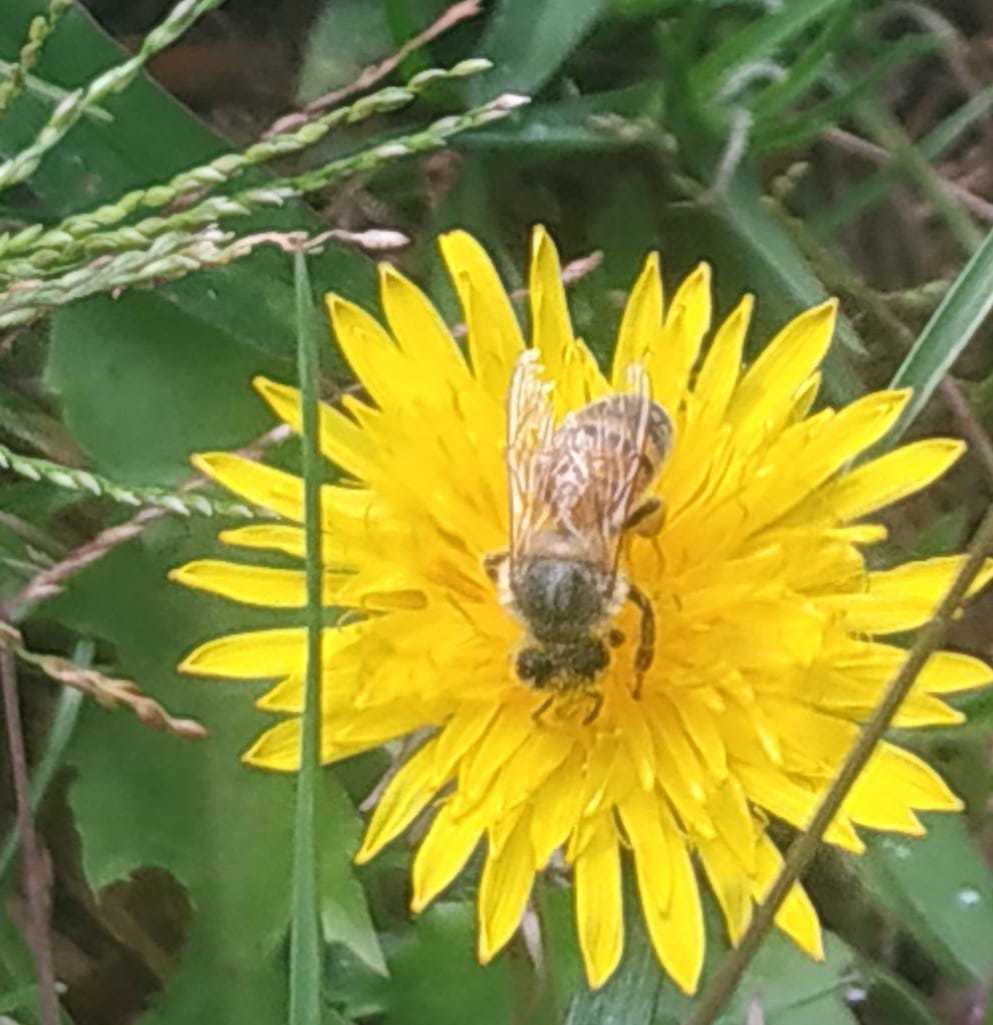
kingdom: Animalia
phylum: Arthropoda
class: Insecta
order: Hymenoptera
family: Apidae
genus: Apis
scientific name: Apis mellifera
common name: Honey bee
